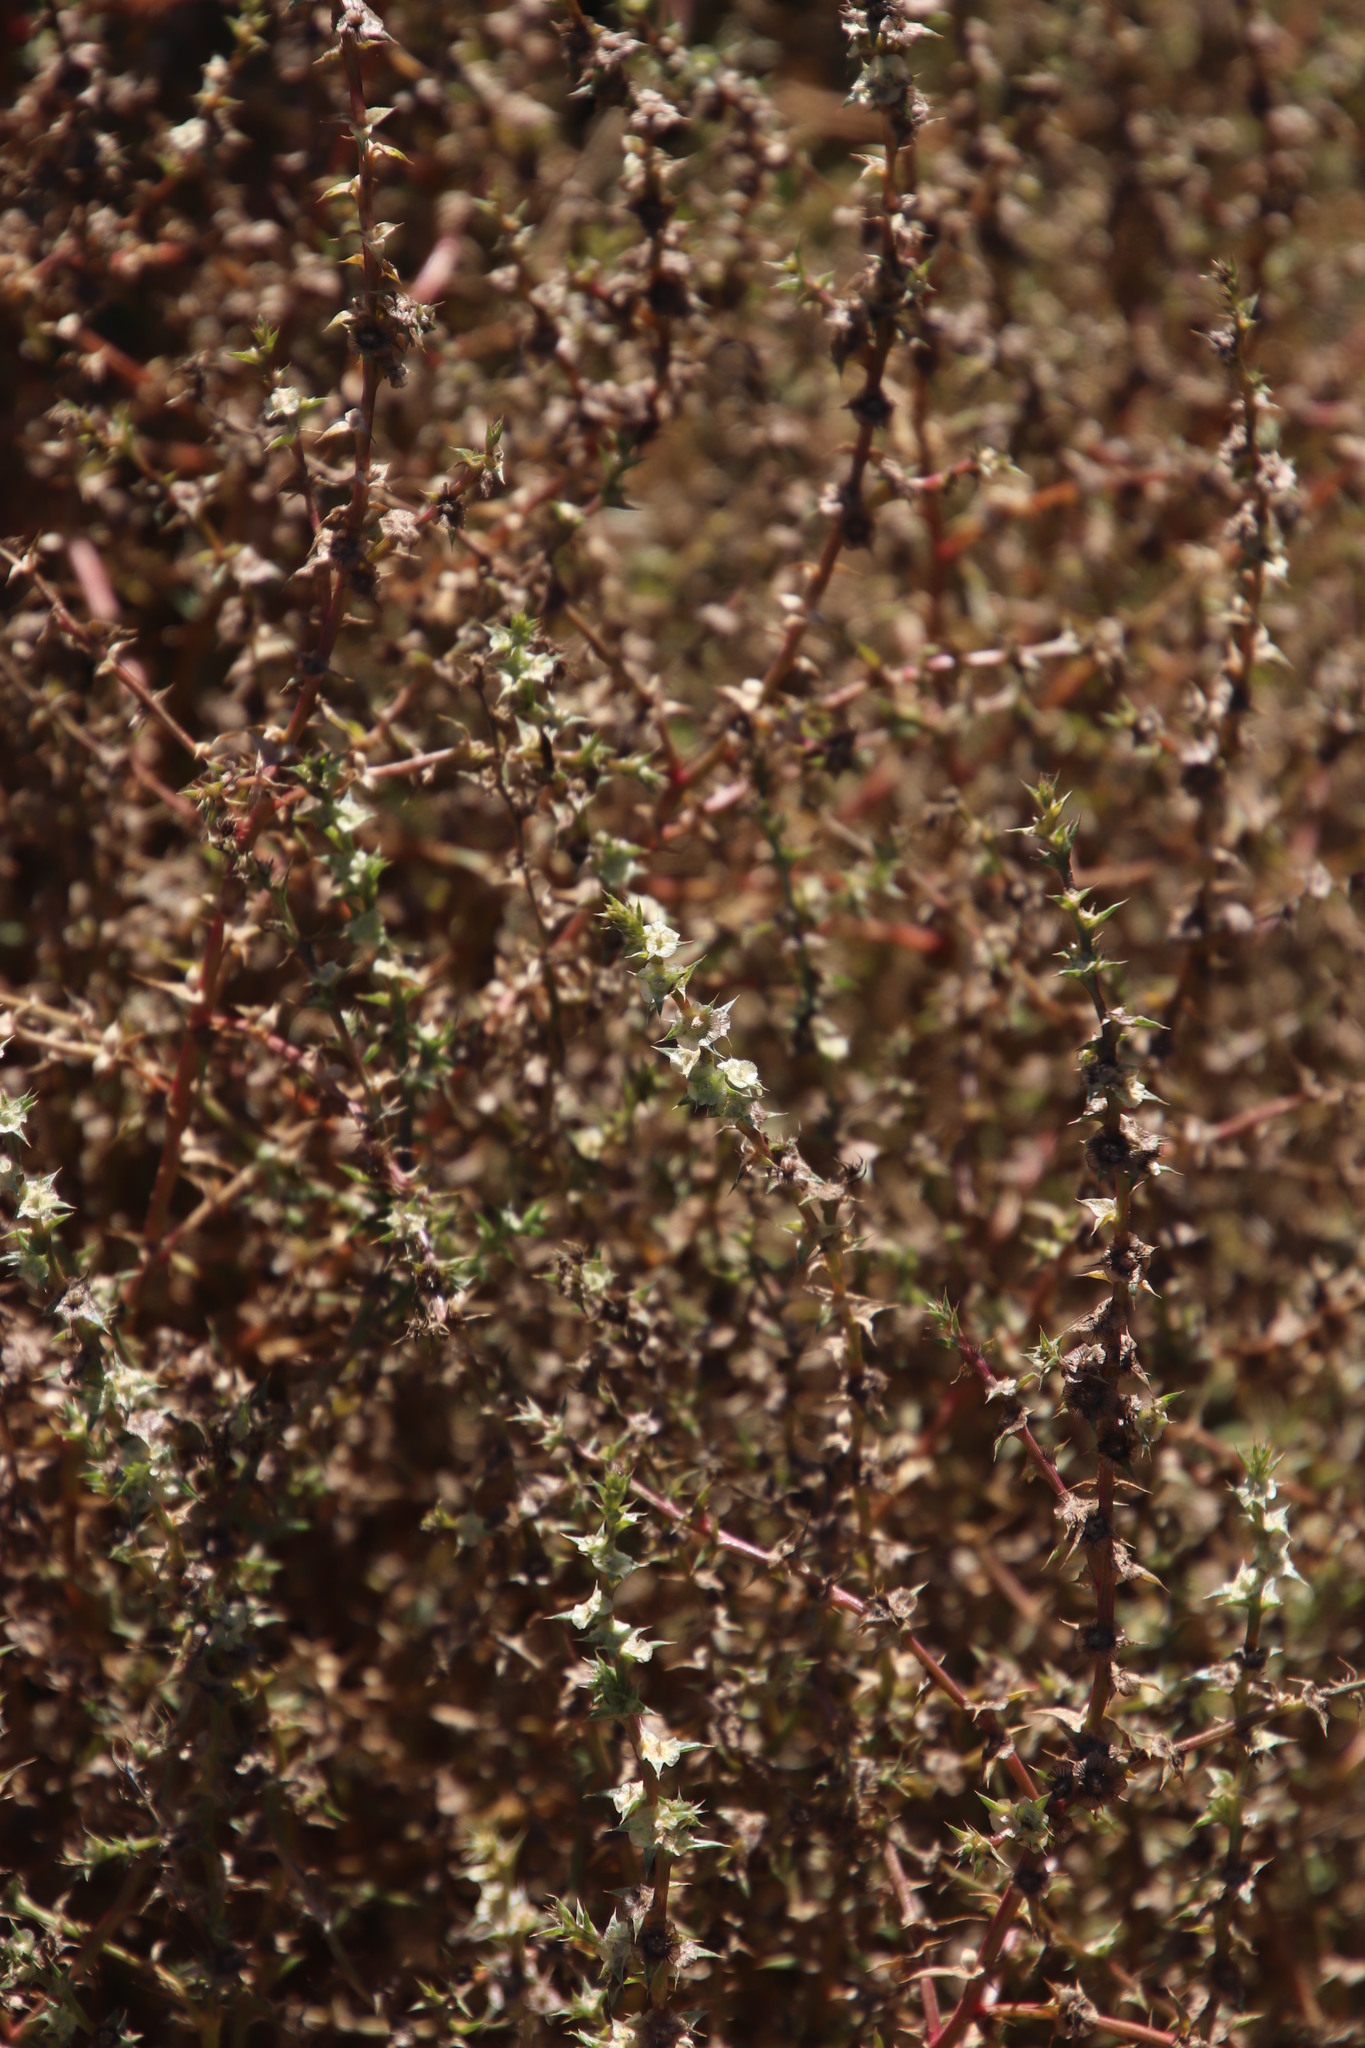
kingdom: Plantae
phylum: Tracheophyta
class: Magnoliopsida
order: Caryophyllales
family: Amaranthaceae
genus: Salsola
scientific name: Salsola kali
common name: Saltwort
